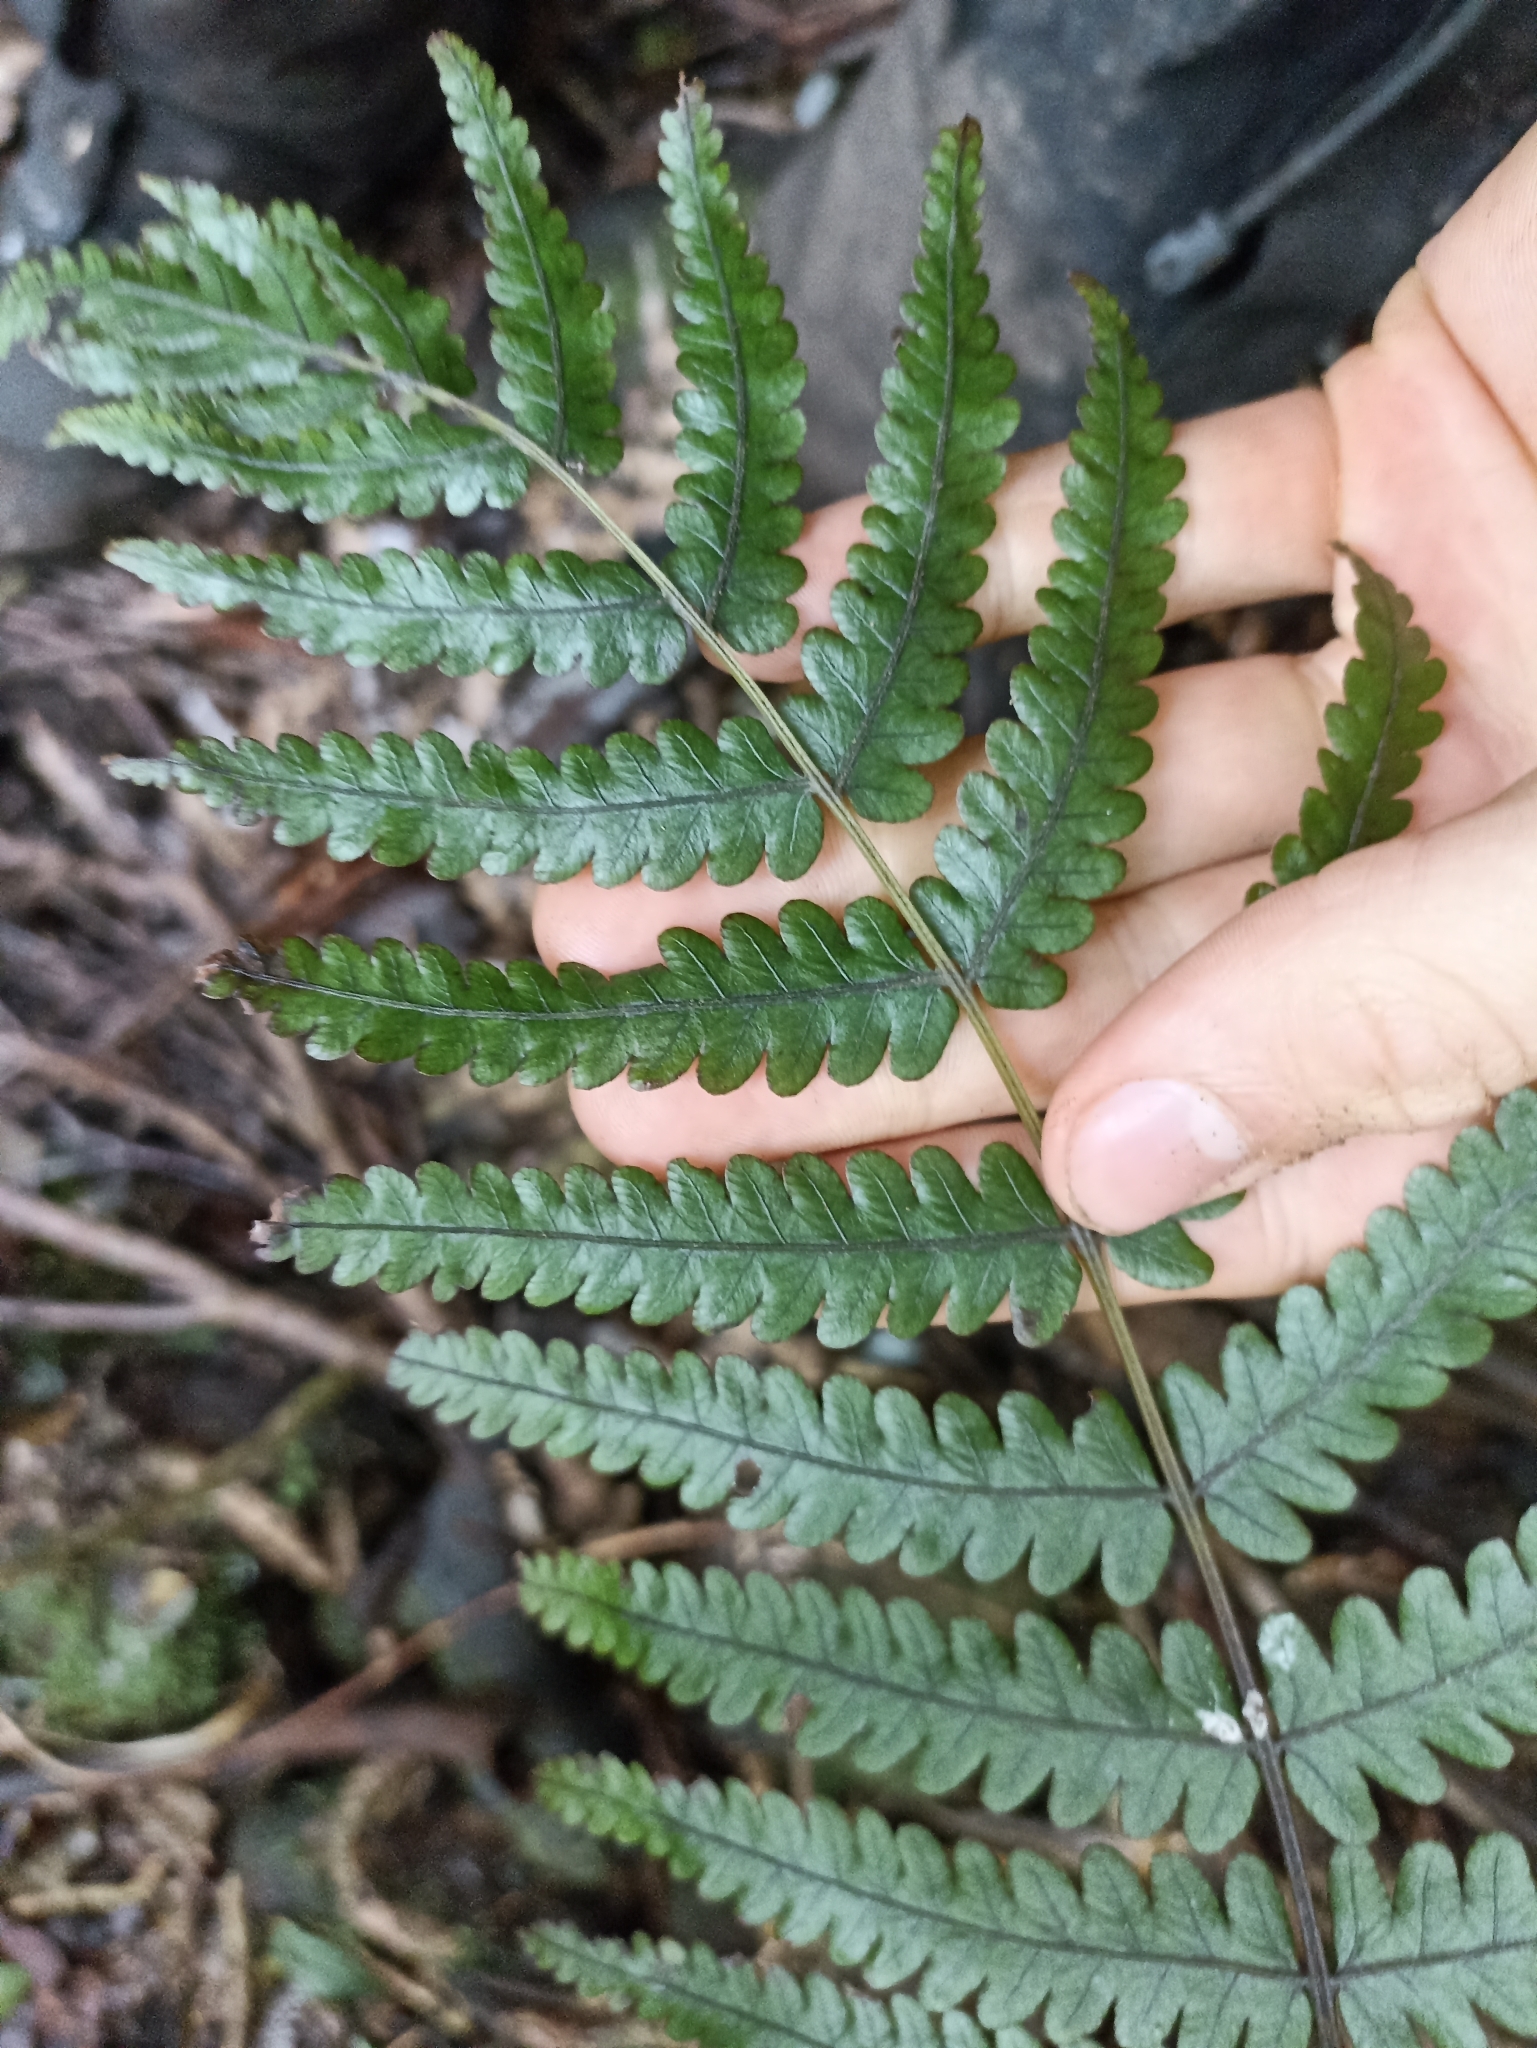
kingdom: Plantae
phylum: Tracheophyta
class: Polypodiopsida
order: Polypodiales
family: Thelypteridaceae
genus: Pakau
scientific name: Pakau pennigera
